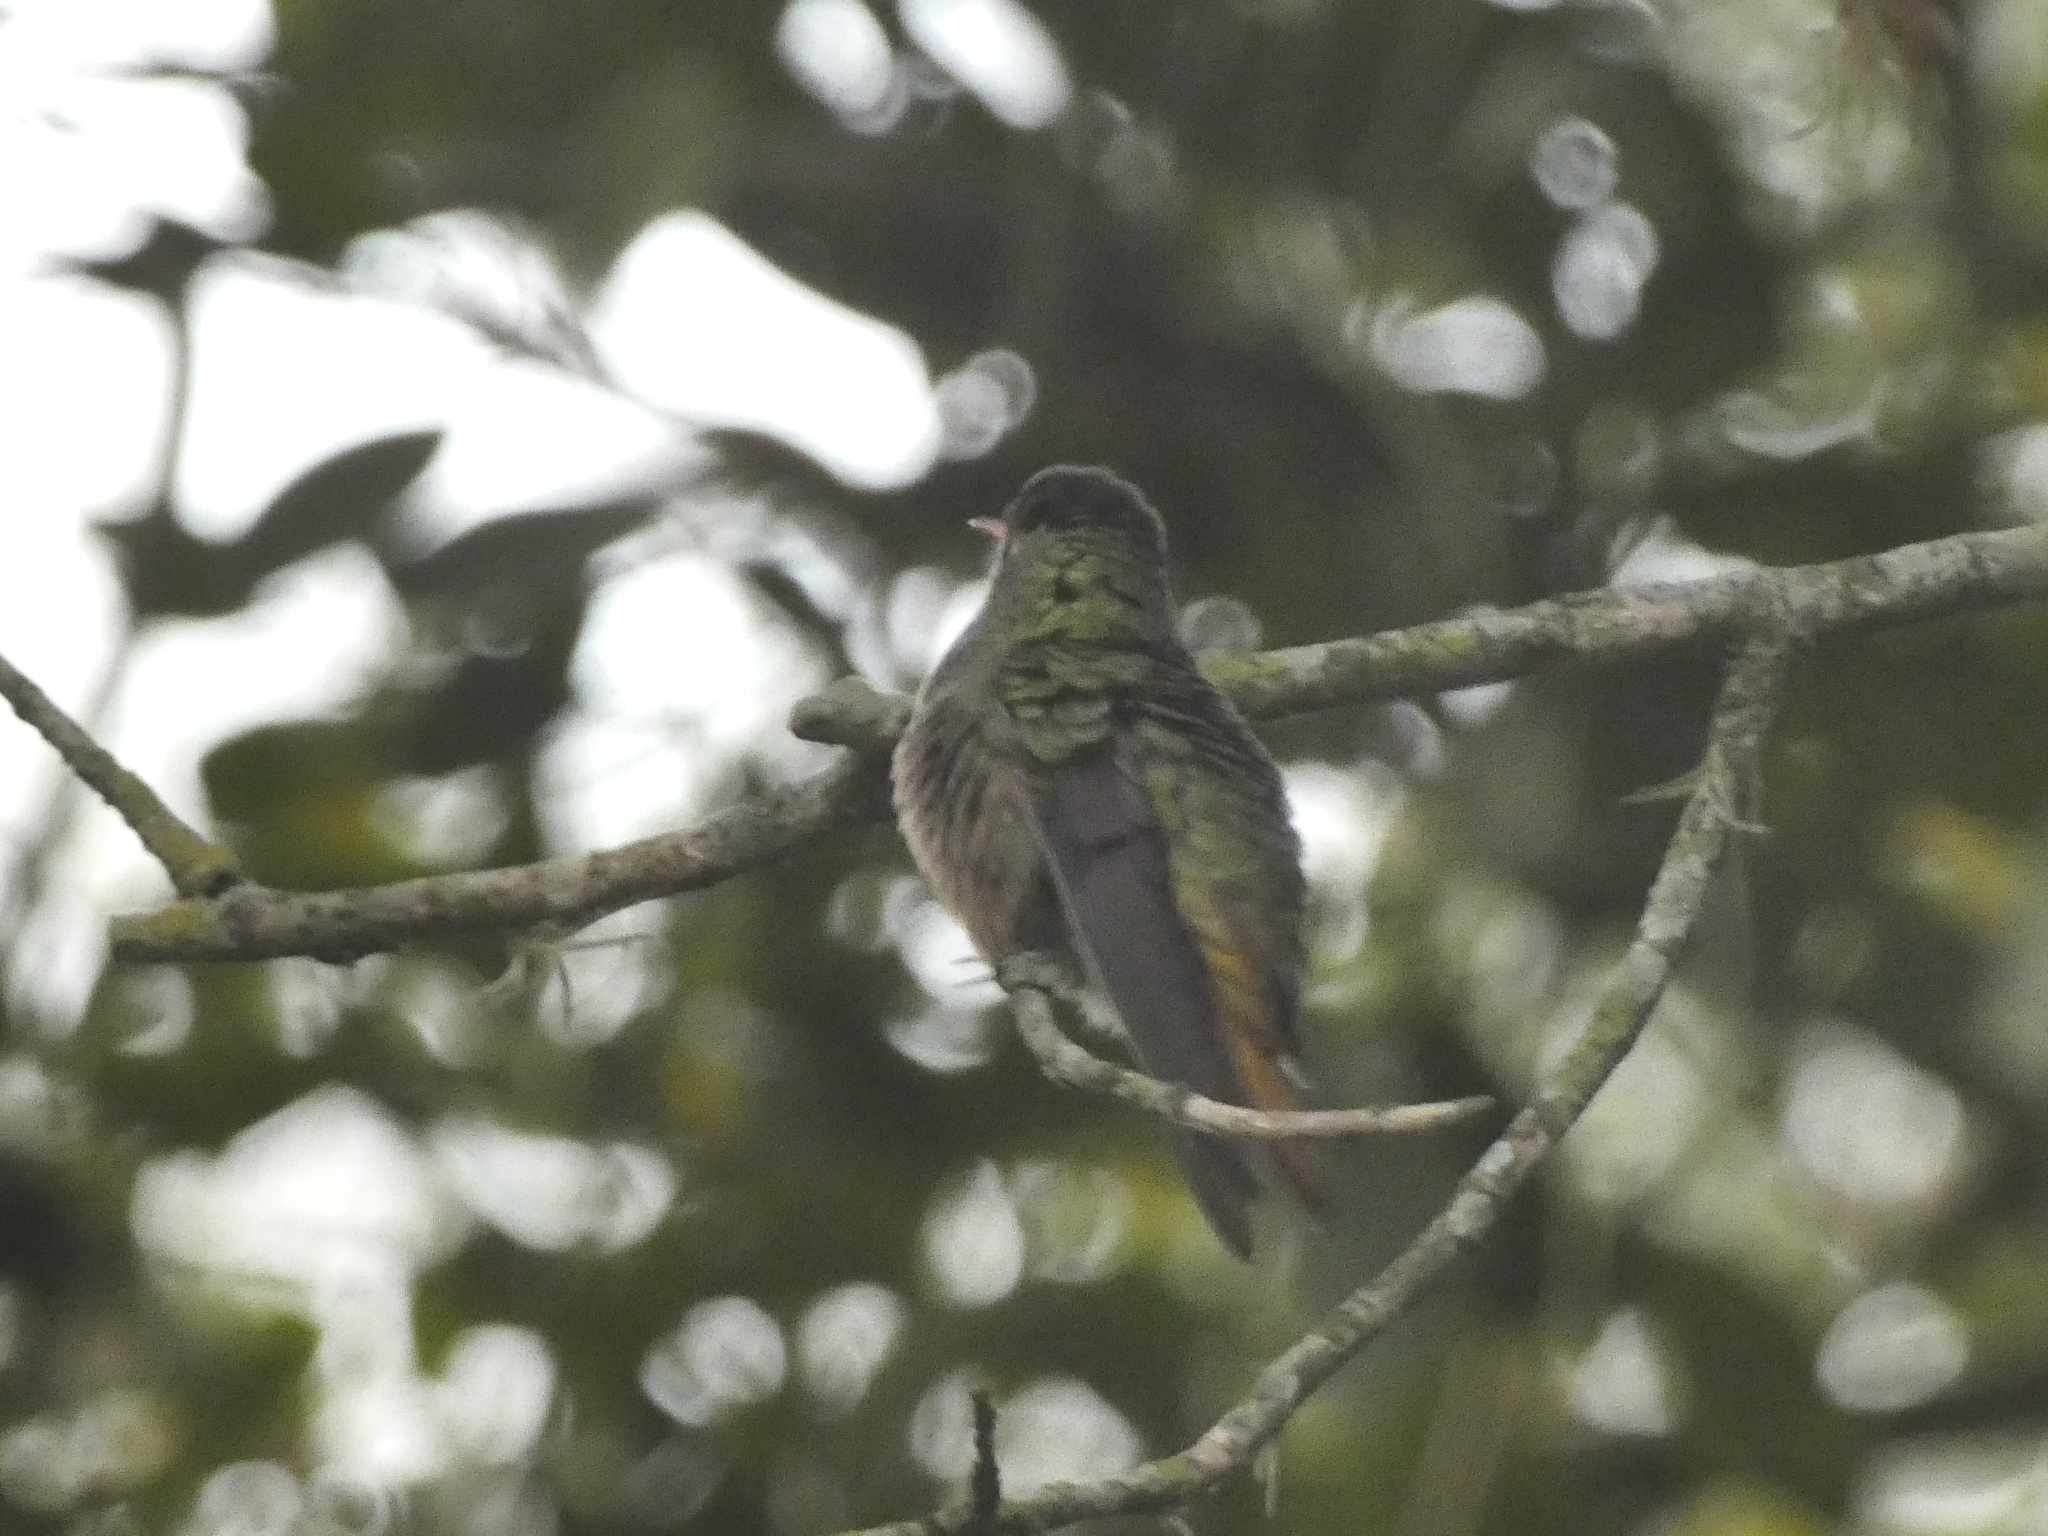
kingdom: Animalia
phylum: Chordata
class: Aves
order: Apodiformes
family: Trochilidae
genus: Hylocharis
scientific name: Hylocharis chrysura
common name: Gilded sapphire
